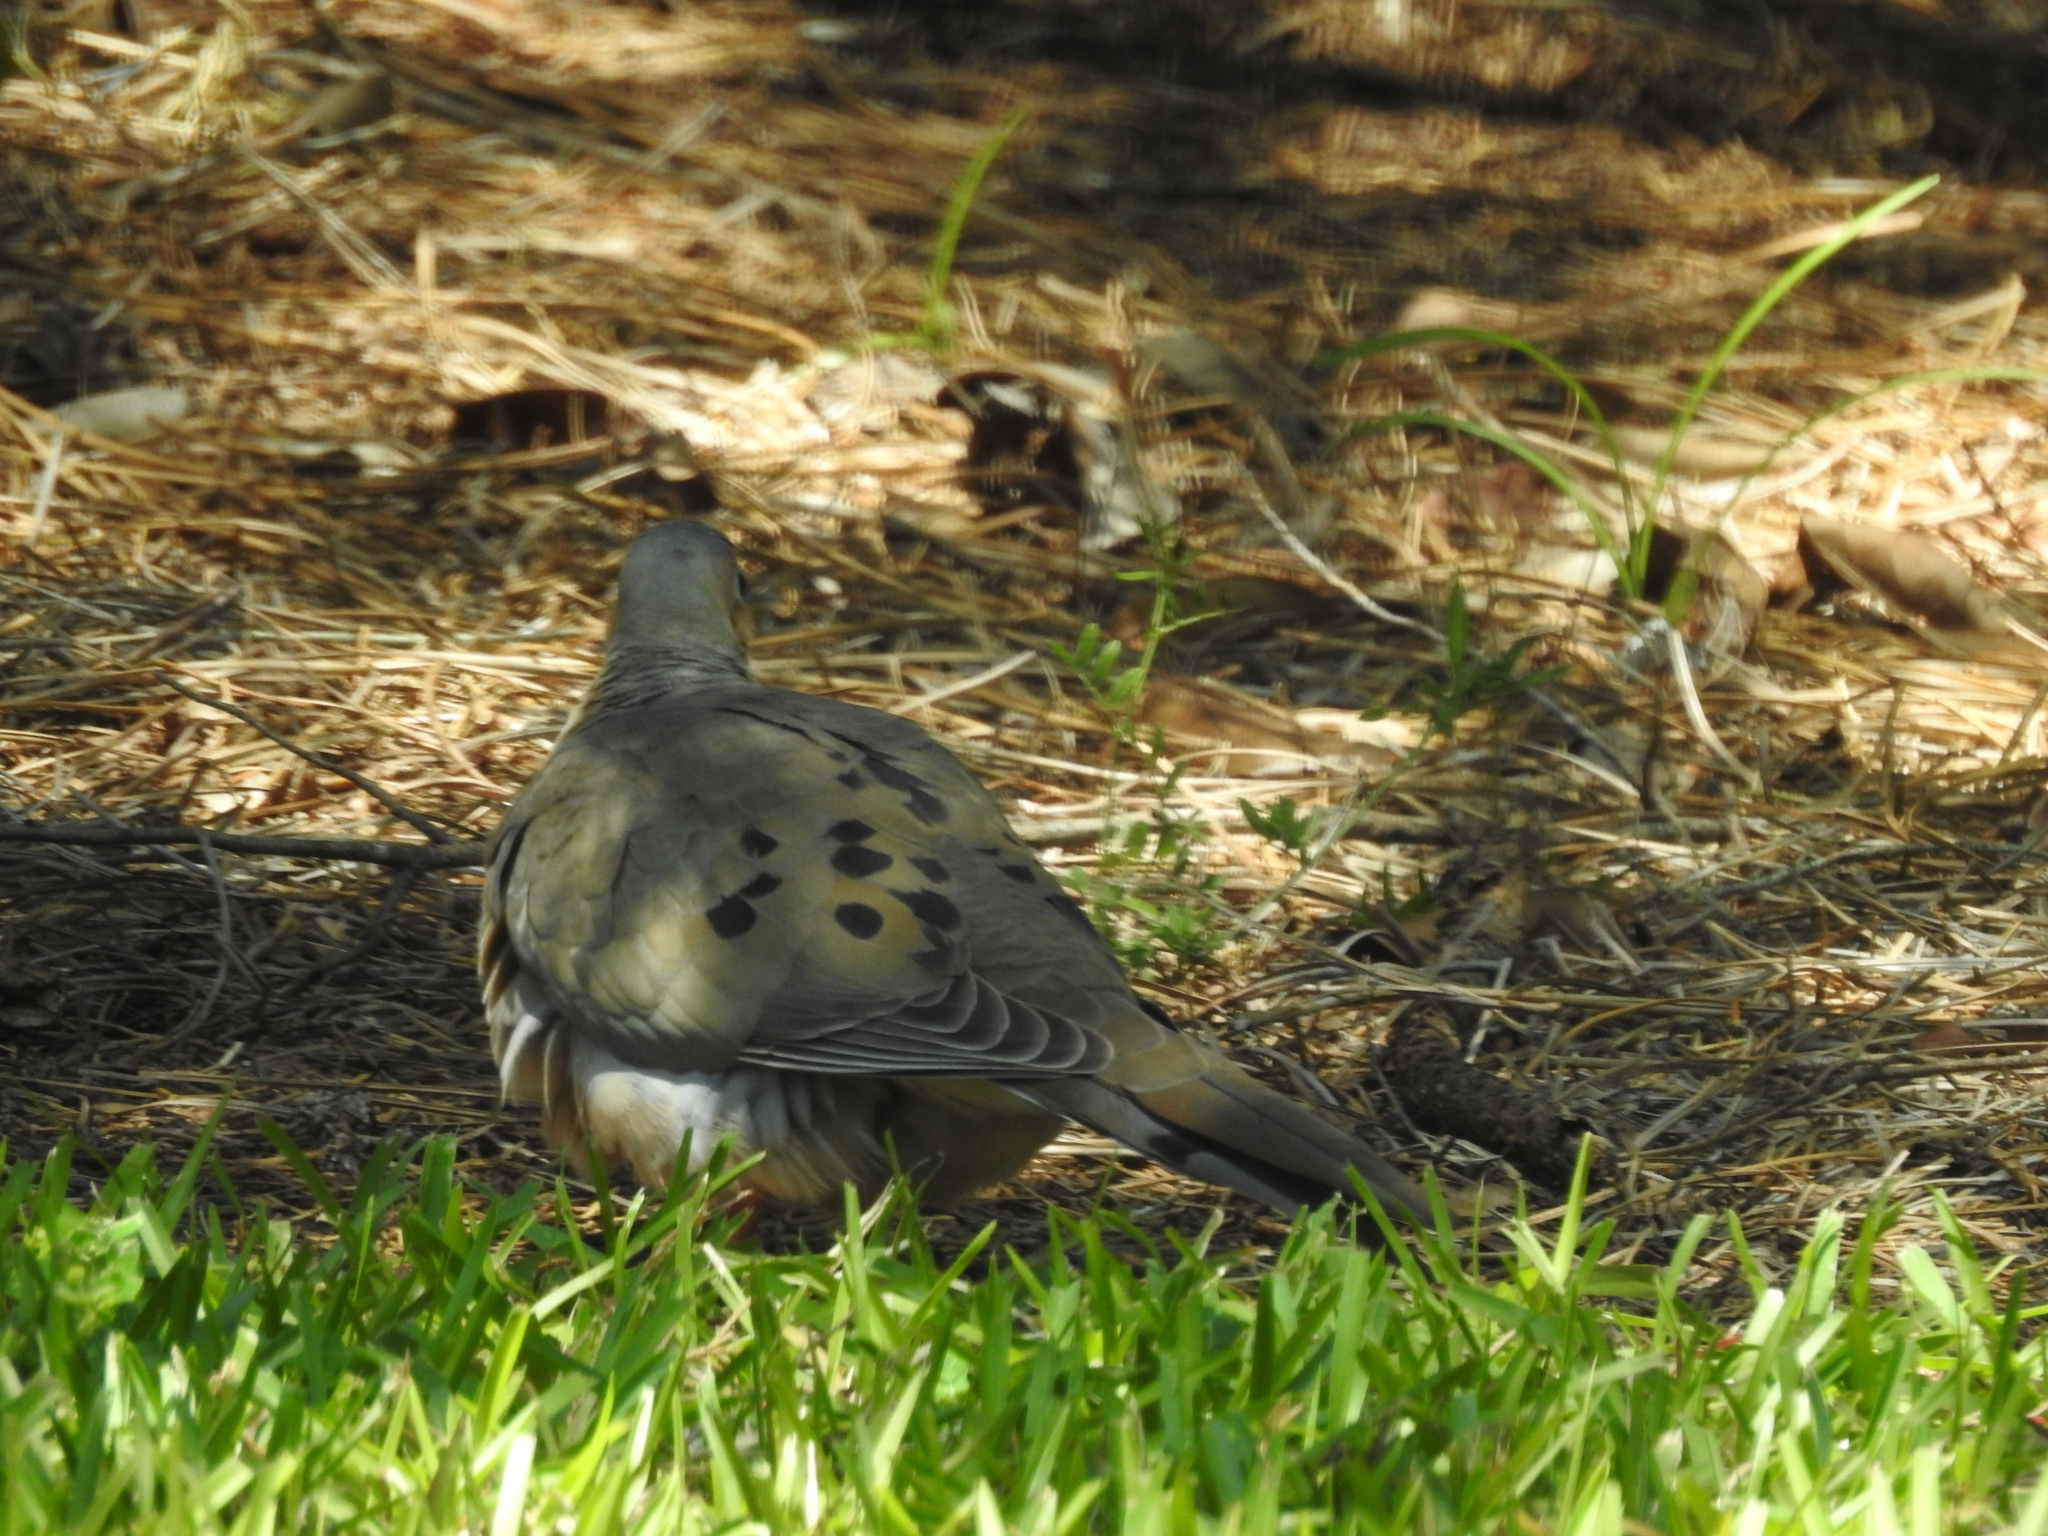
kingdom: Animalia
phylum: Chordata
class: Aves
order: Columbiformes
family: Columbidae
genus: Zenaida
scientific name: Zenaida macroura
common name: Mourning dove
